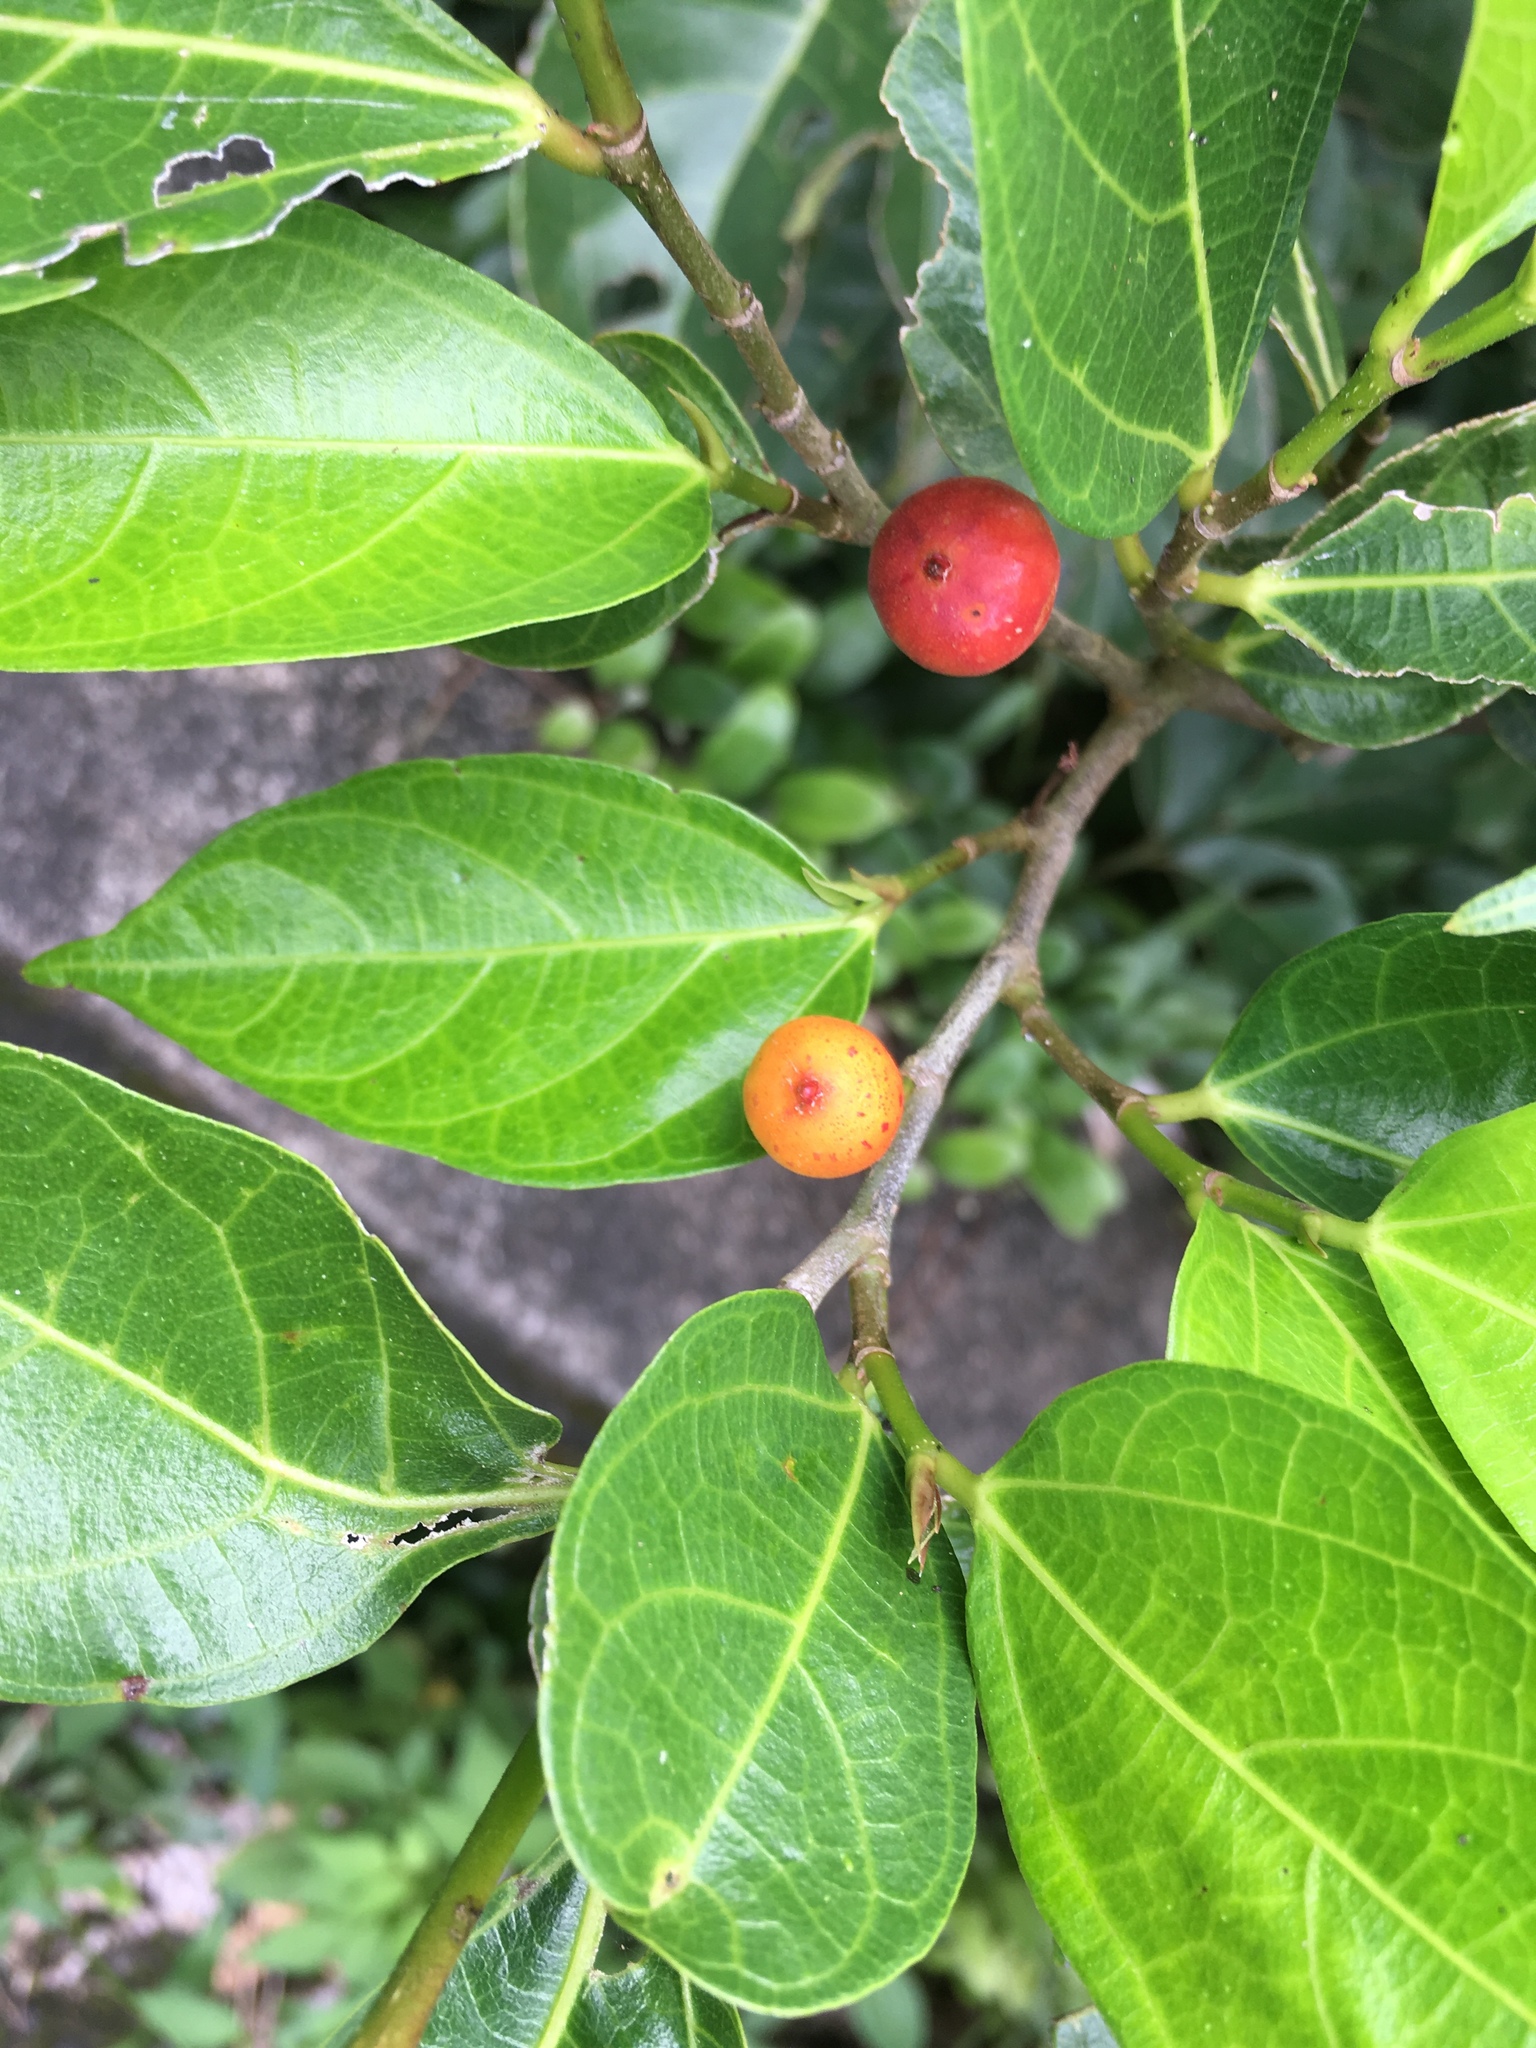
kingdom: Plantae
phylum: Tracheophyta
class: Magnoliopsida
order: Rosales
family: Moraceae
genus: Ficus
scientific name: Ficus ampelos
